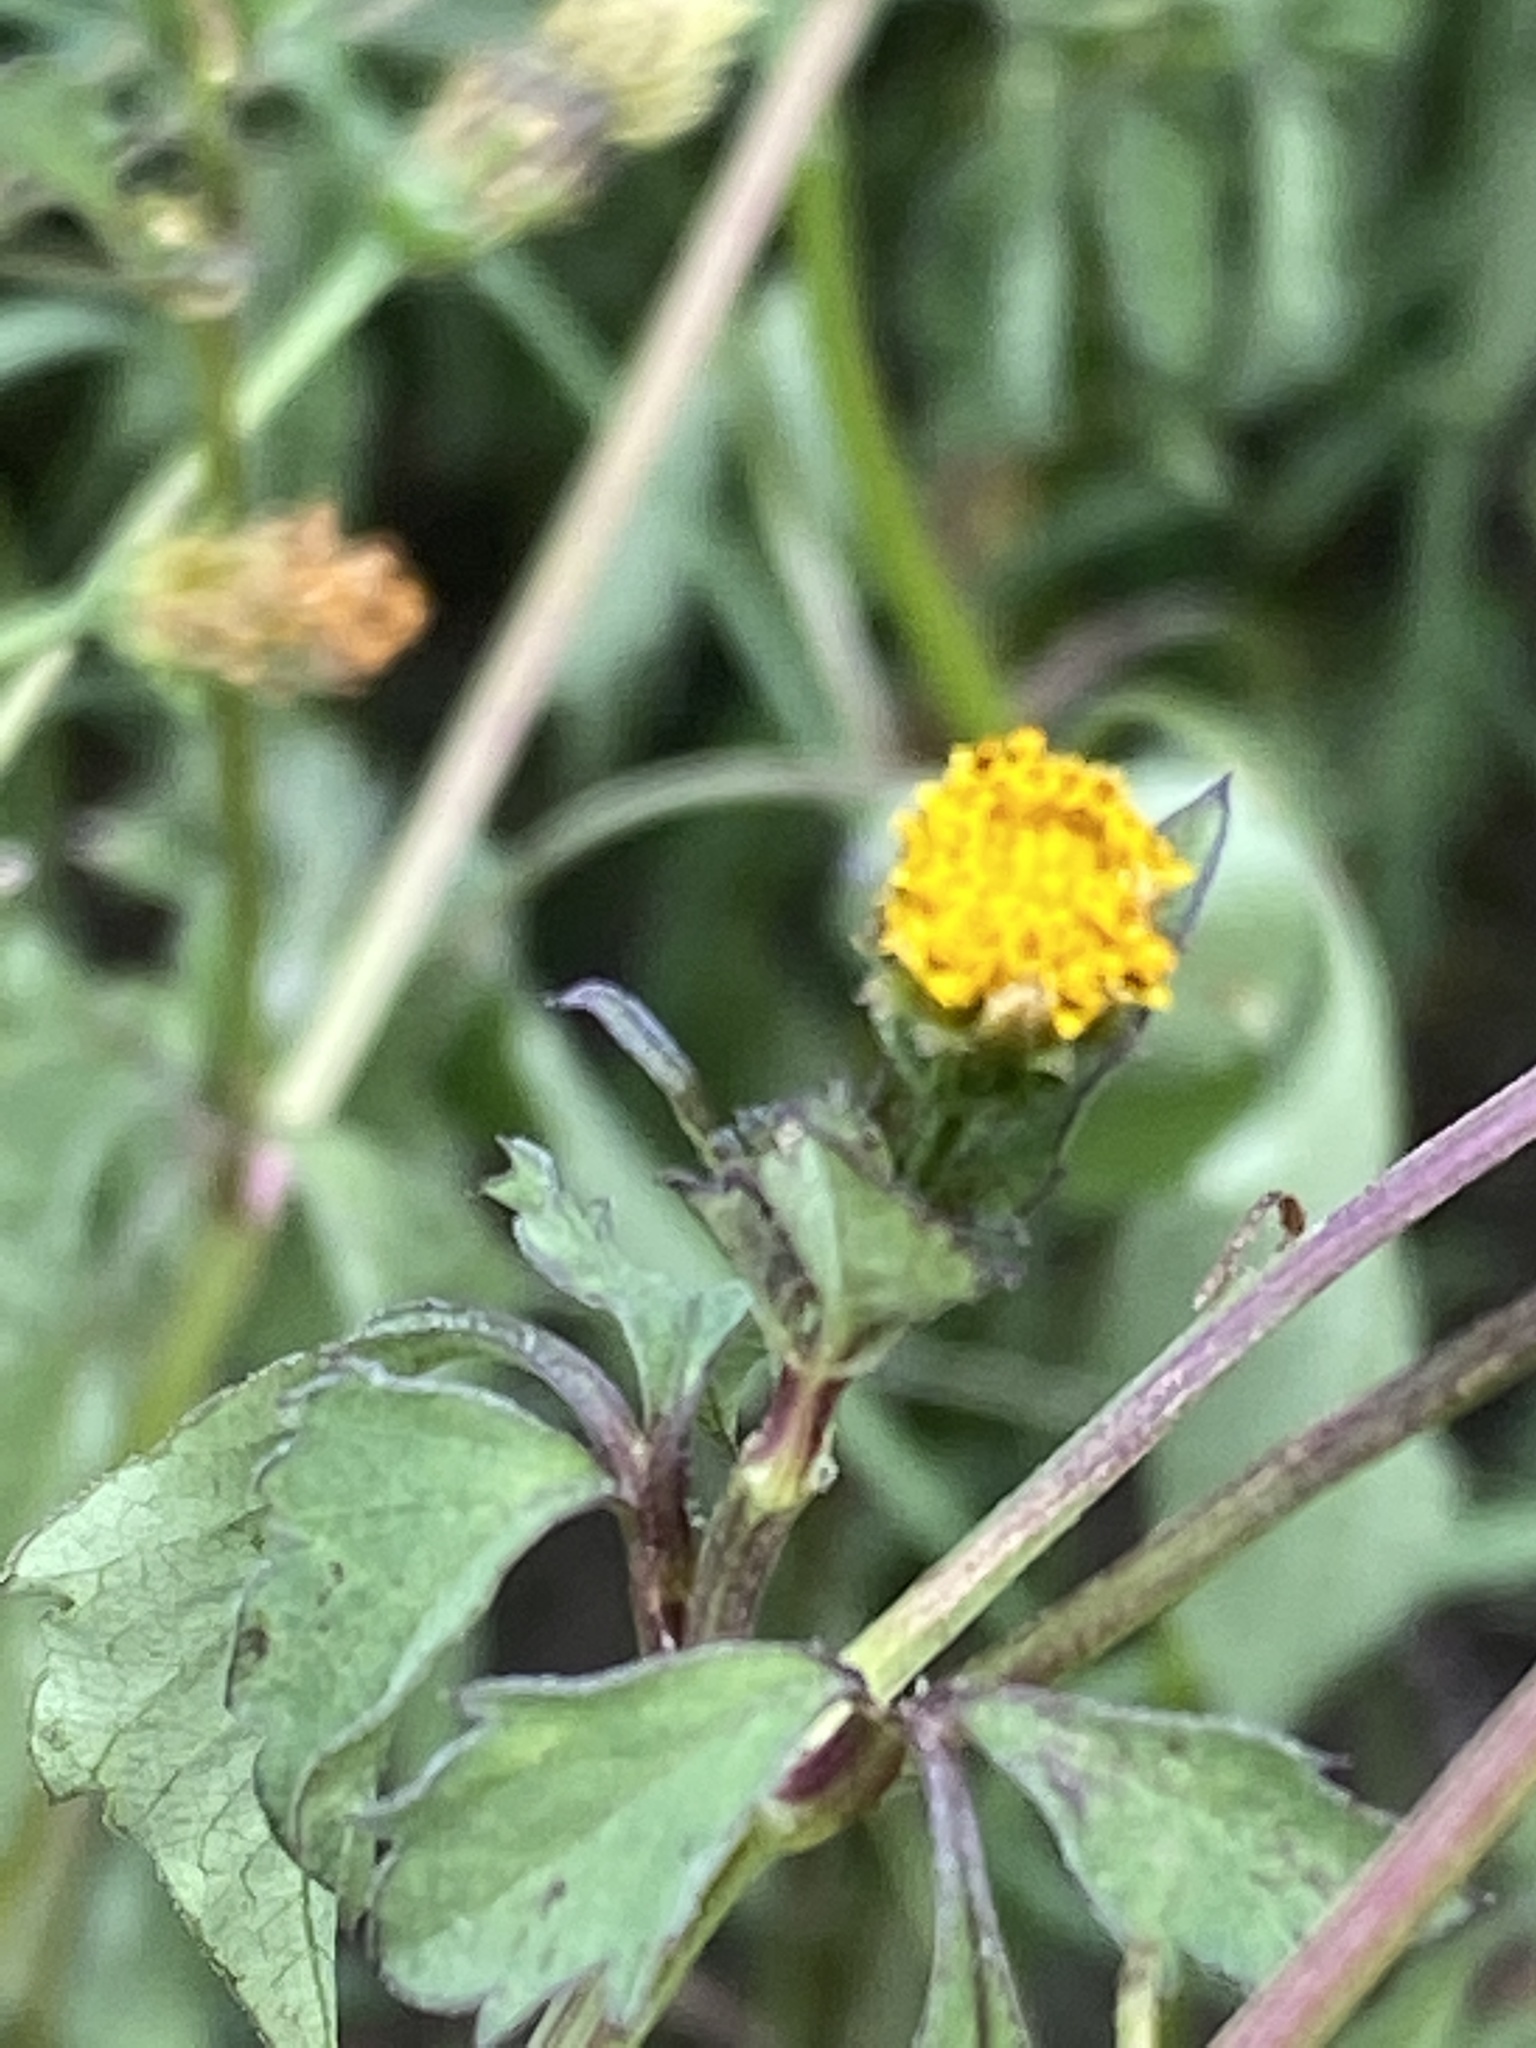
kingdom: Plantae
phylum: Tracheophyta
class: Magnoliopsida
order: Asterales
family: Asteraceae
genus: Bidens
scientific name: Bidens pilosa
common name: Black-jack
